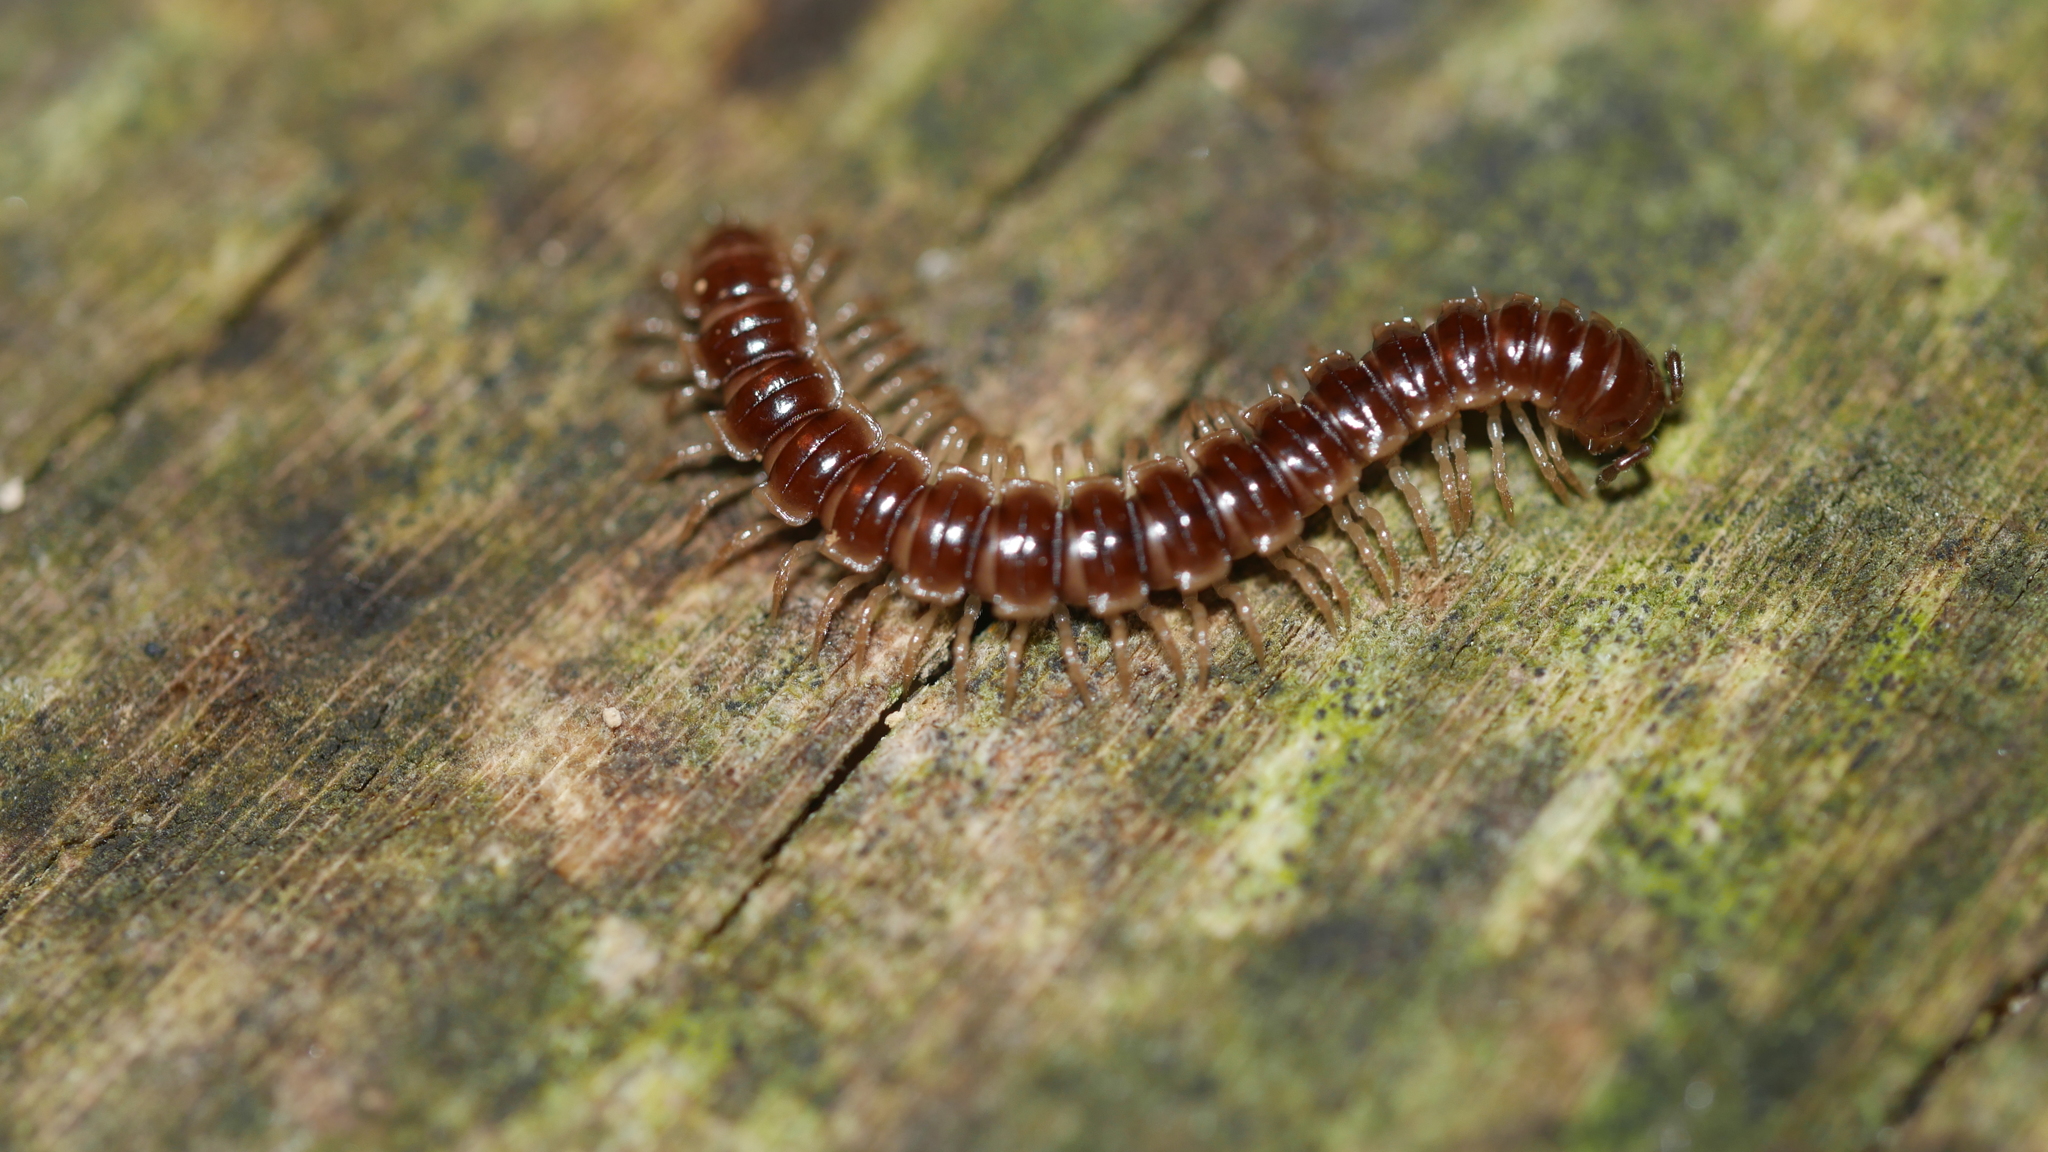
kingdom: Animalia
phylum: Arthropoda
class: Diplopoda
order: Polydesmida
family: Paradoxosomatidae
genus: Oxidus
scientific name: Oxidus gracilis
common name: Greenhouse millipede
